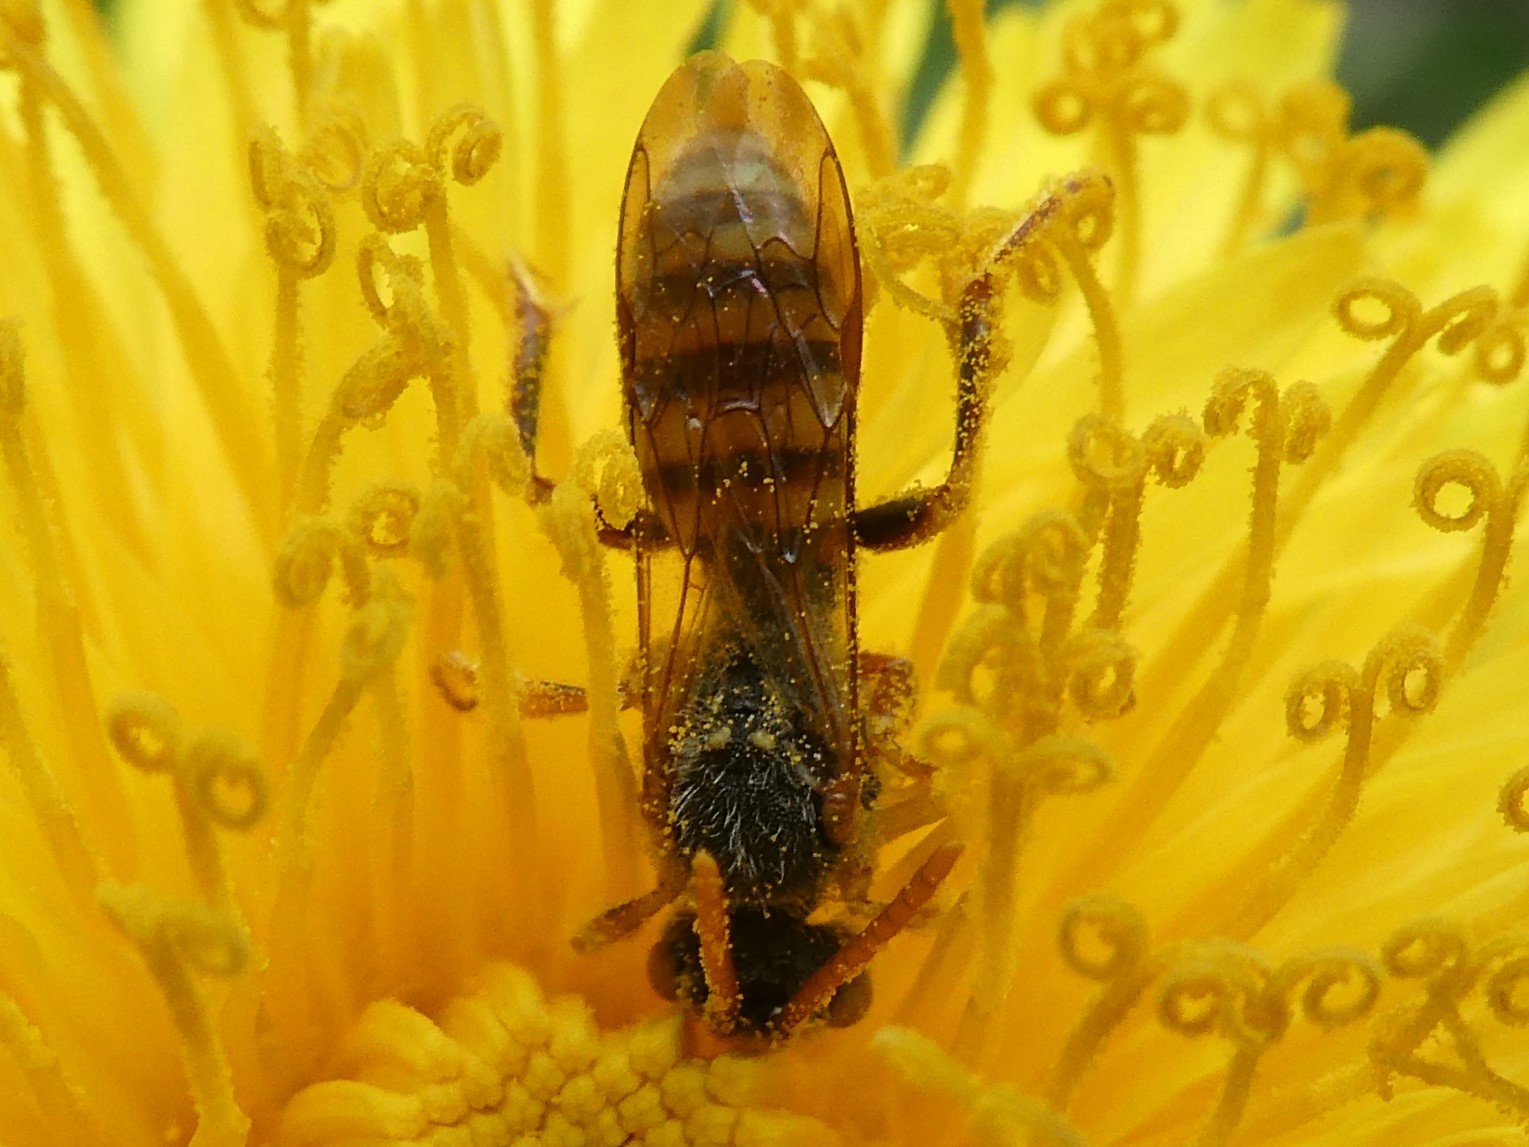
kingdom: Animalia
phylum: Arthropoda
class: Insecta
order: Hymenoptera
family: Apidae
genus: Nomada
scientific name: Nomada imbricata
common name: Imbricate cuckoo nomad bee
